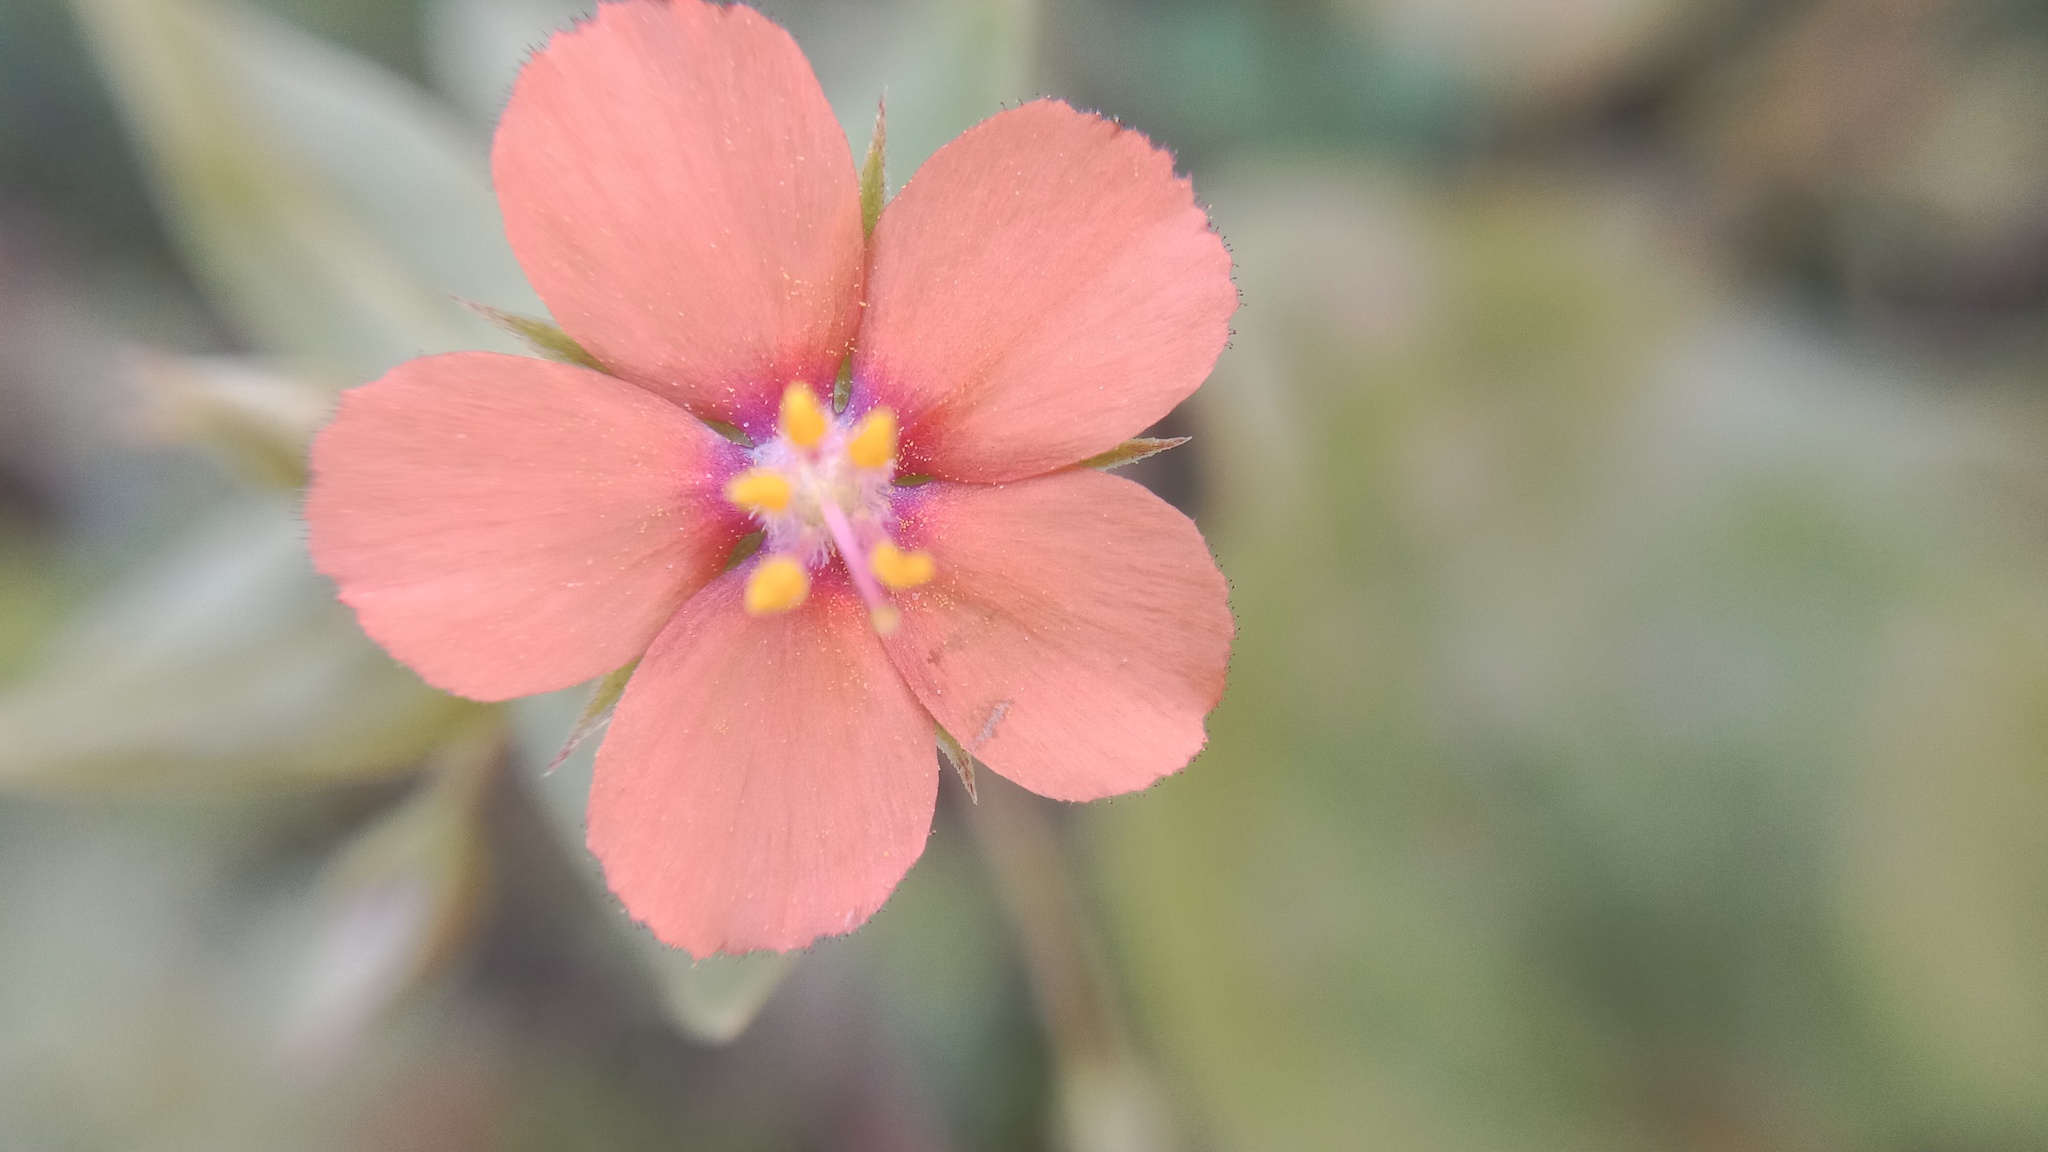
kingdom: Plantae
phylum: Tracheophyta
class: Magnoliopsida
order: Ericales
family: Primulaceae
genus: Lysimachia
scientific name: Lysimachia arvensis
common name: Scarlet pimpernel
